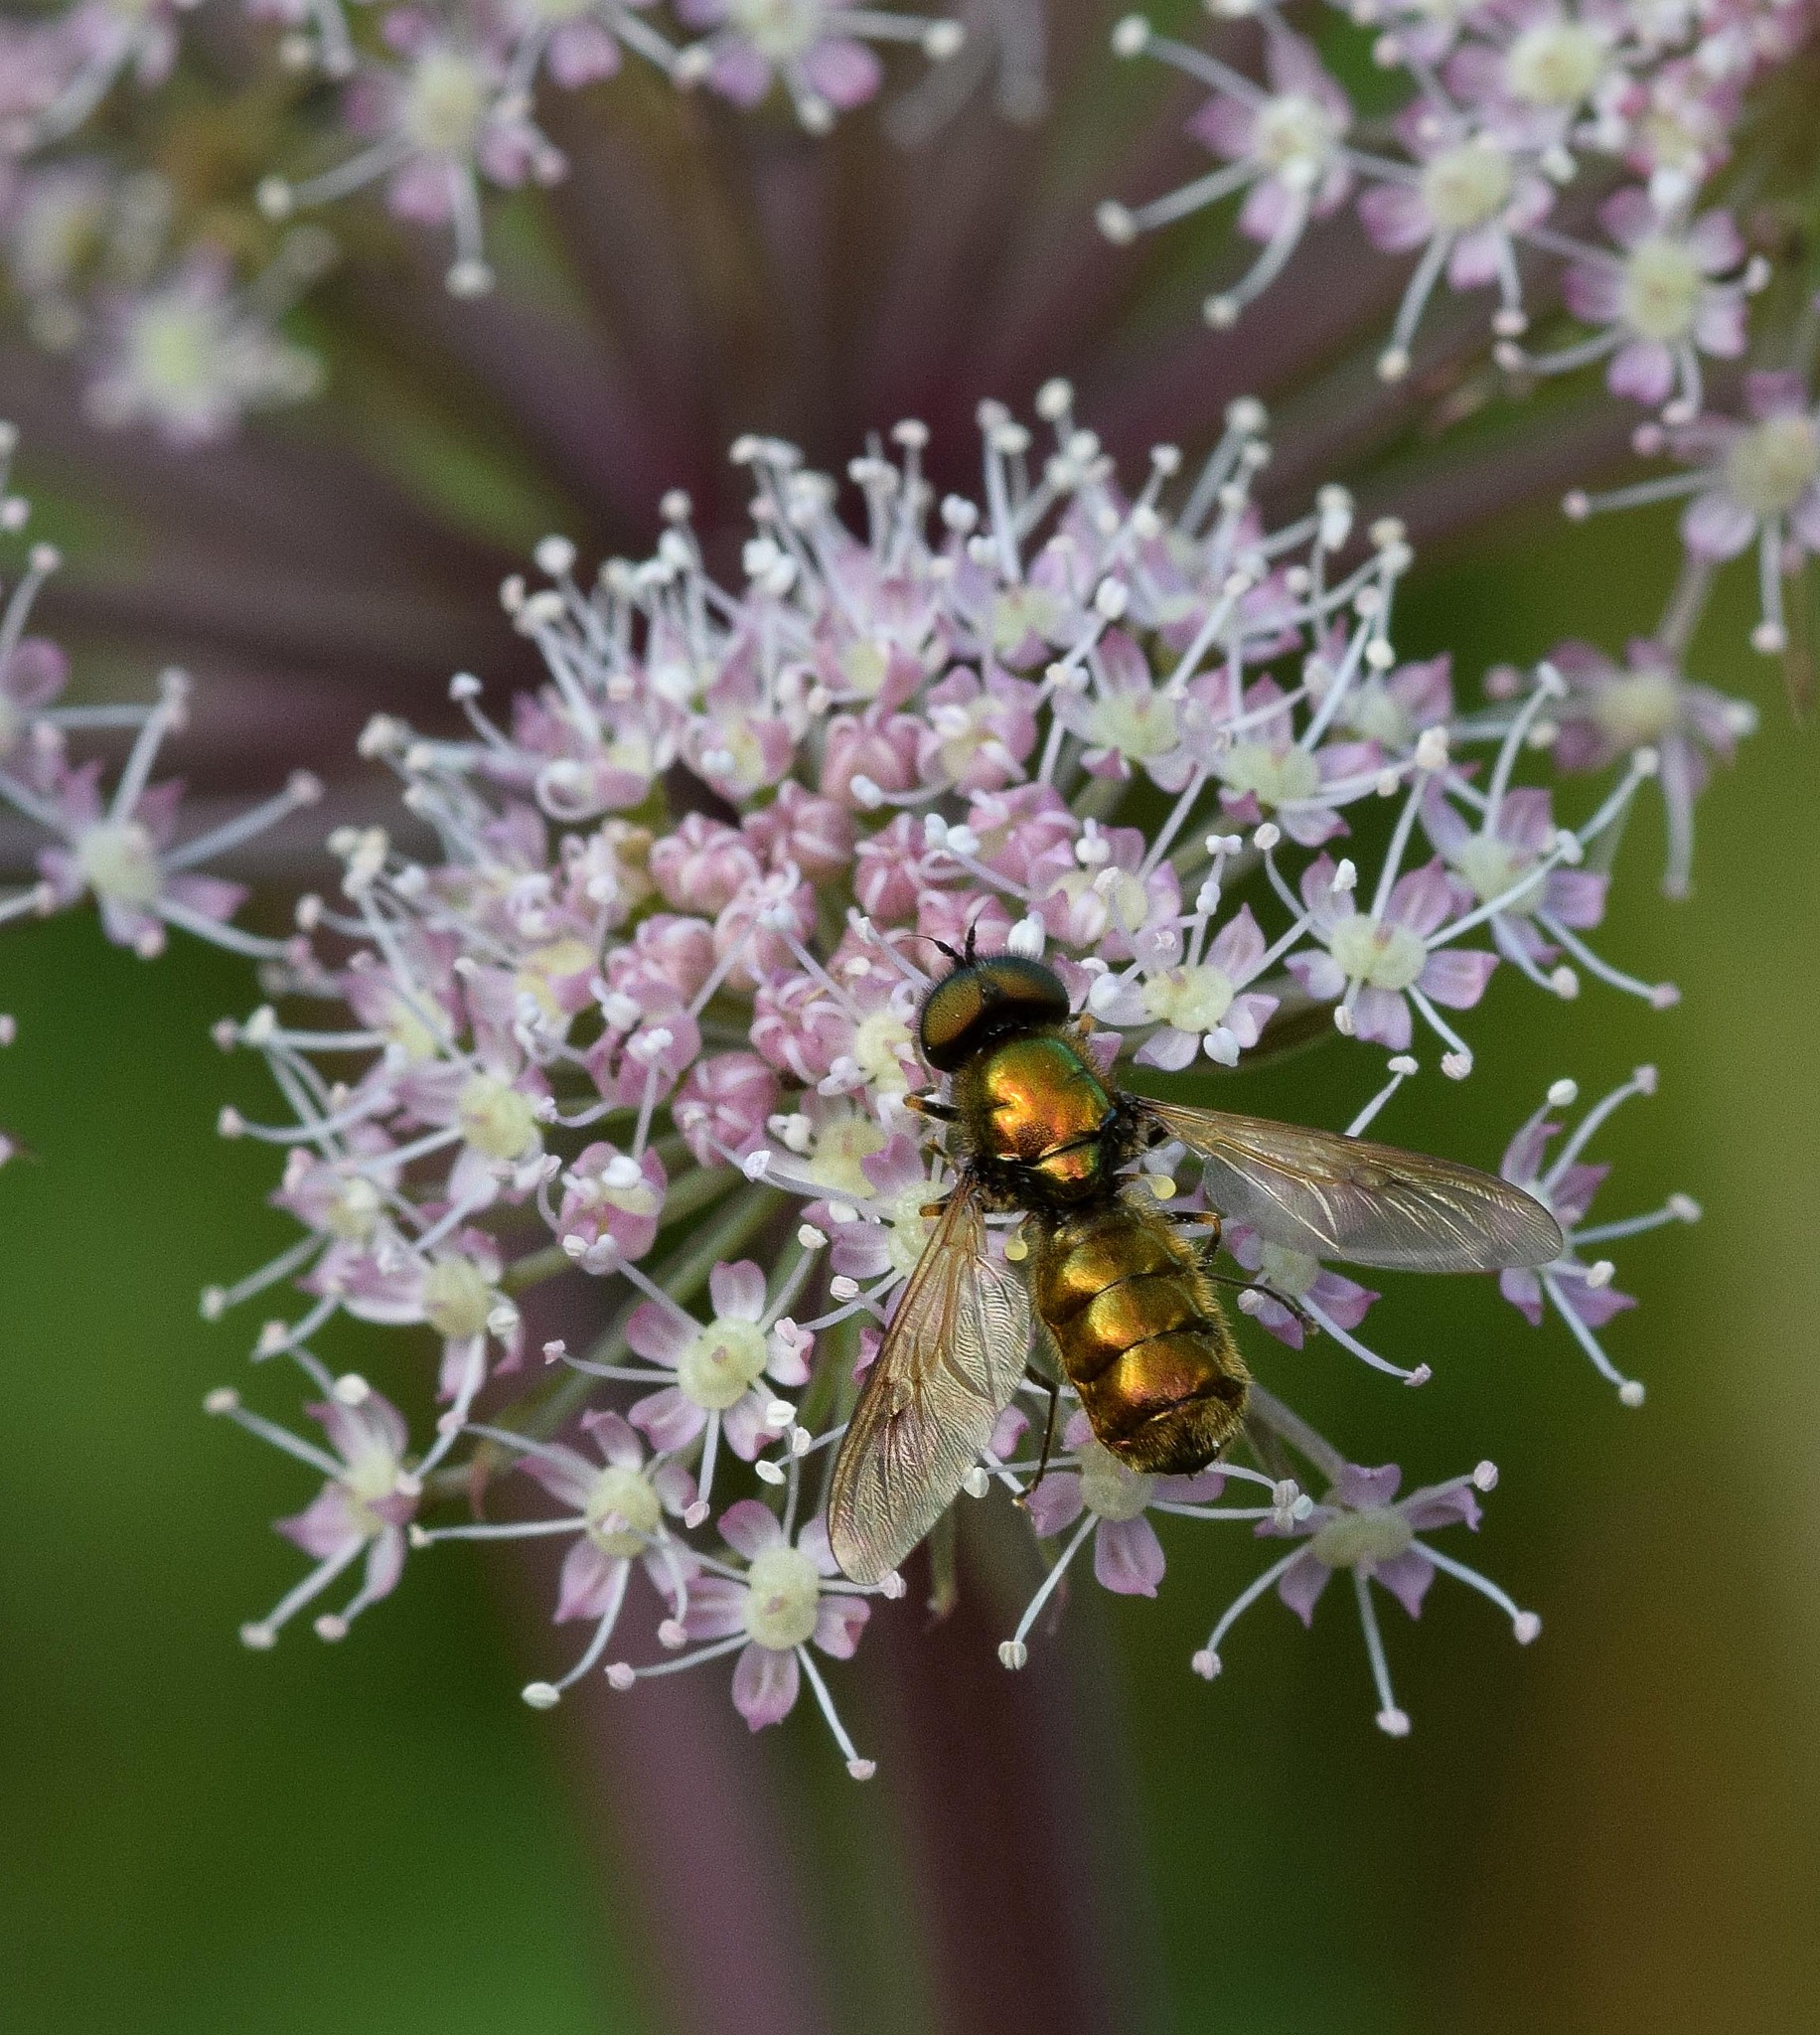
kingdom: Animalia
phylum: Arthropoda
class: Insecta
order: Diptera
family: Stratiomyidae
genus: Chloromyia
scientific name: Chloromyia formosa
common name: Soldier fly
